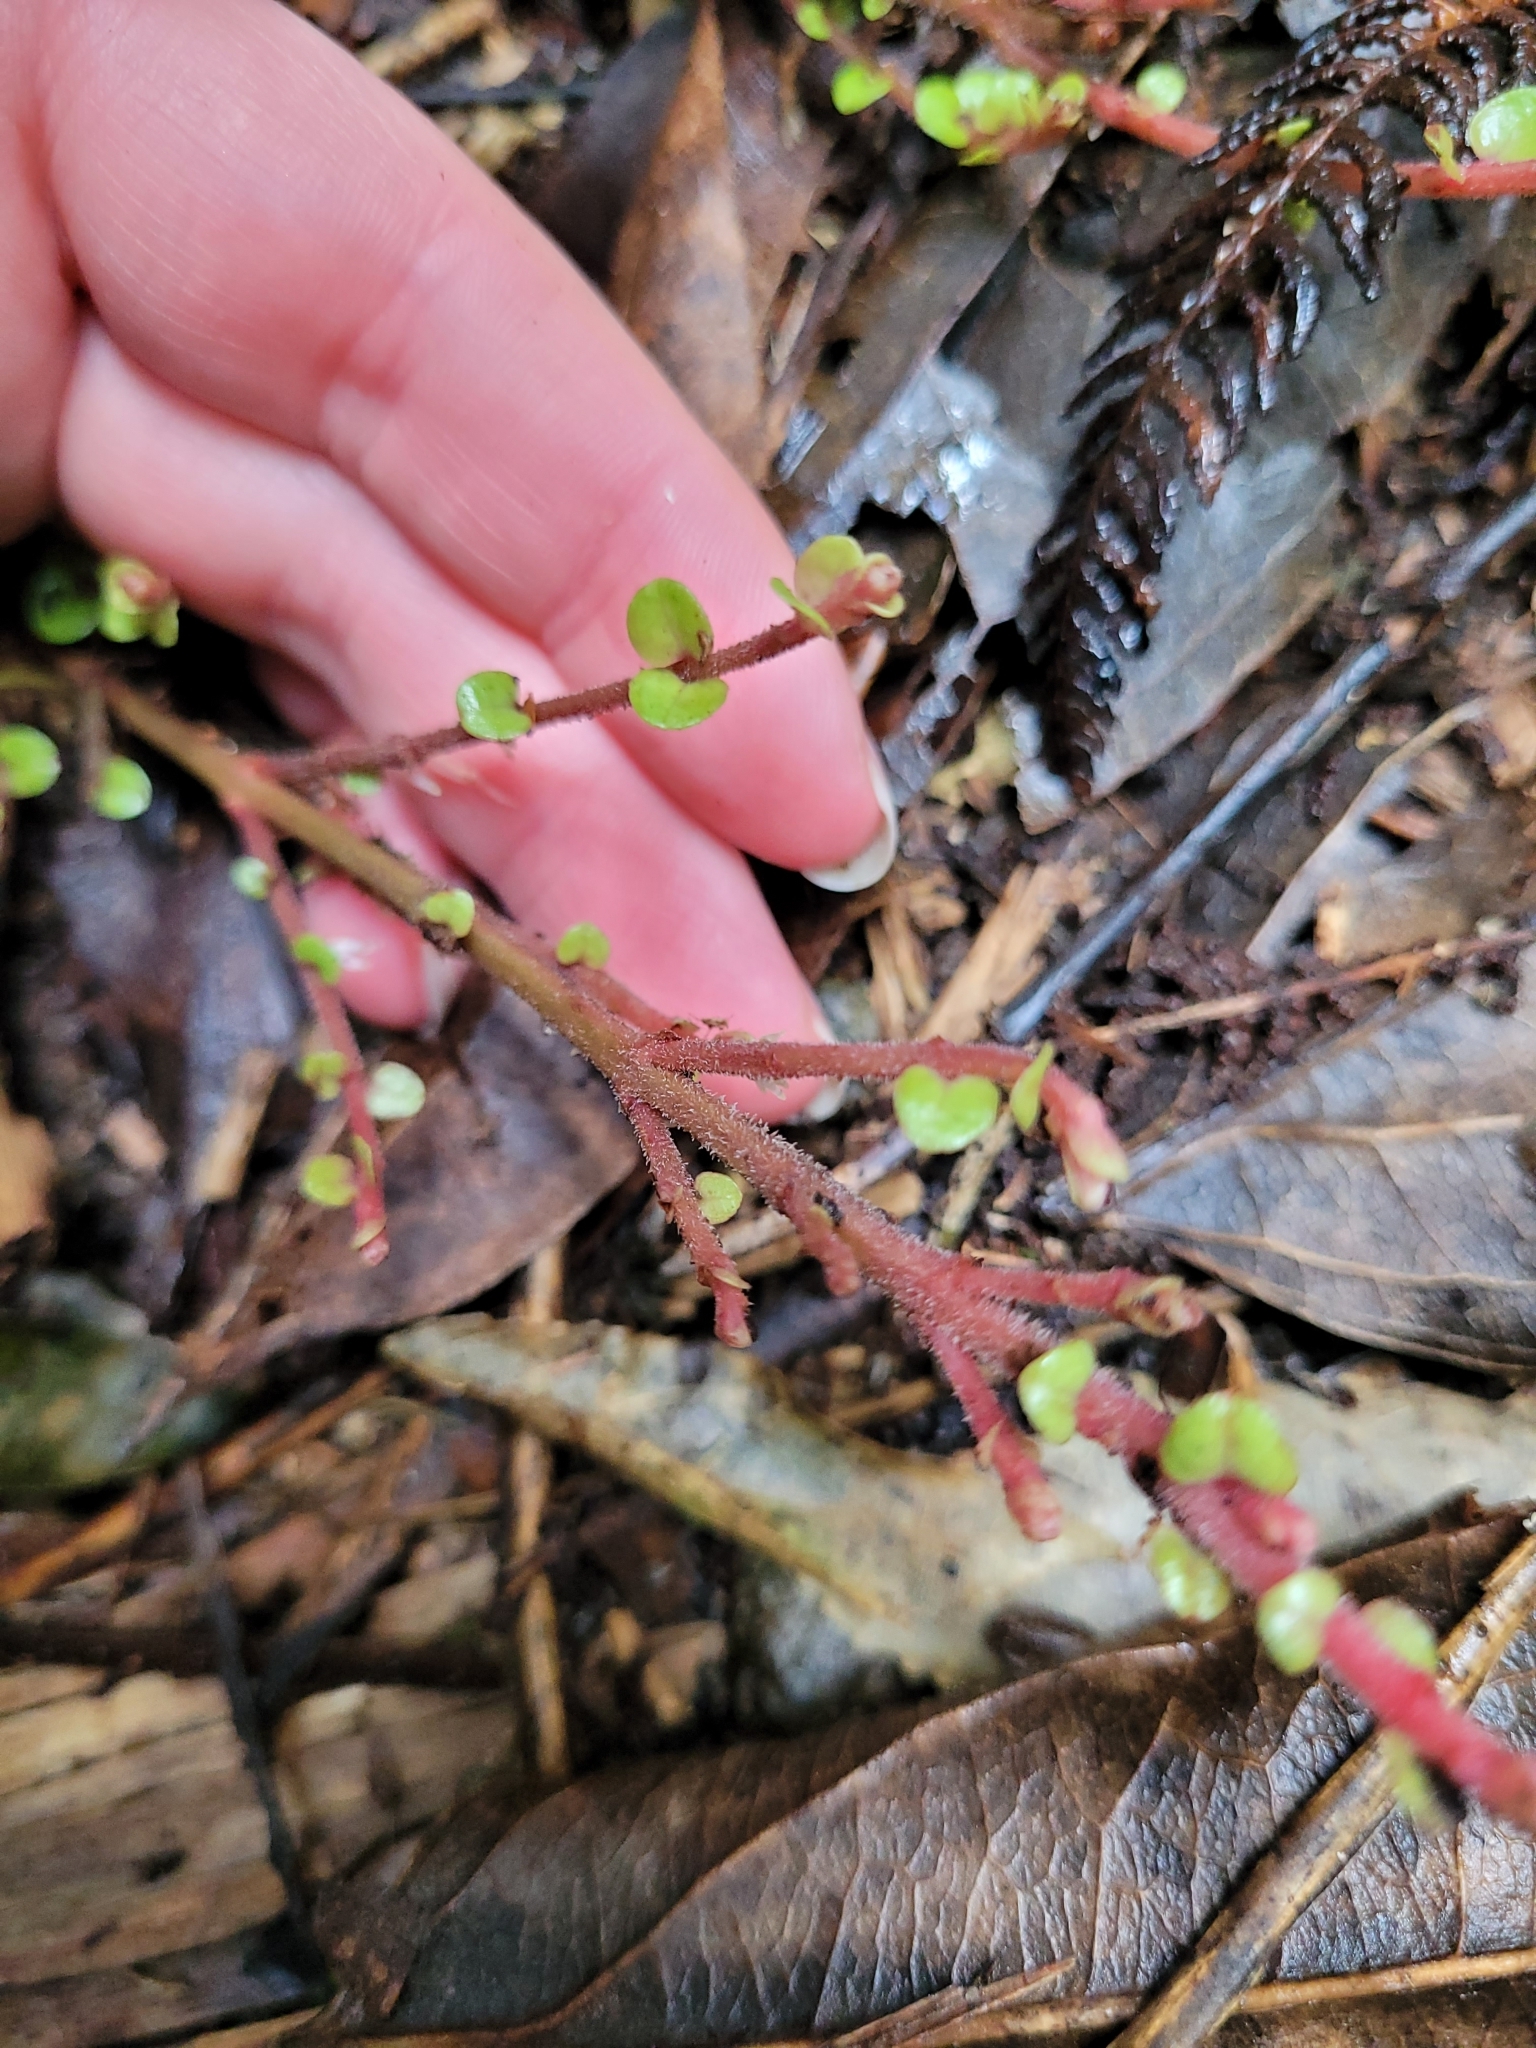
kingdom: Plantae
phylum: Tracheophyta
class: Magnoliopsida
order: Myrtales
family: Myrtaceae
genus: Metrosideros
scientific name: Metrosideros perforata
